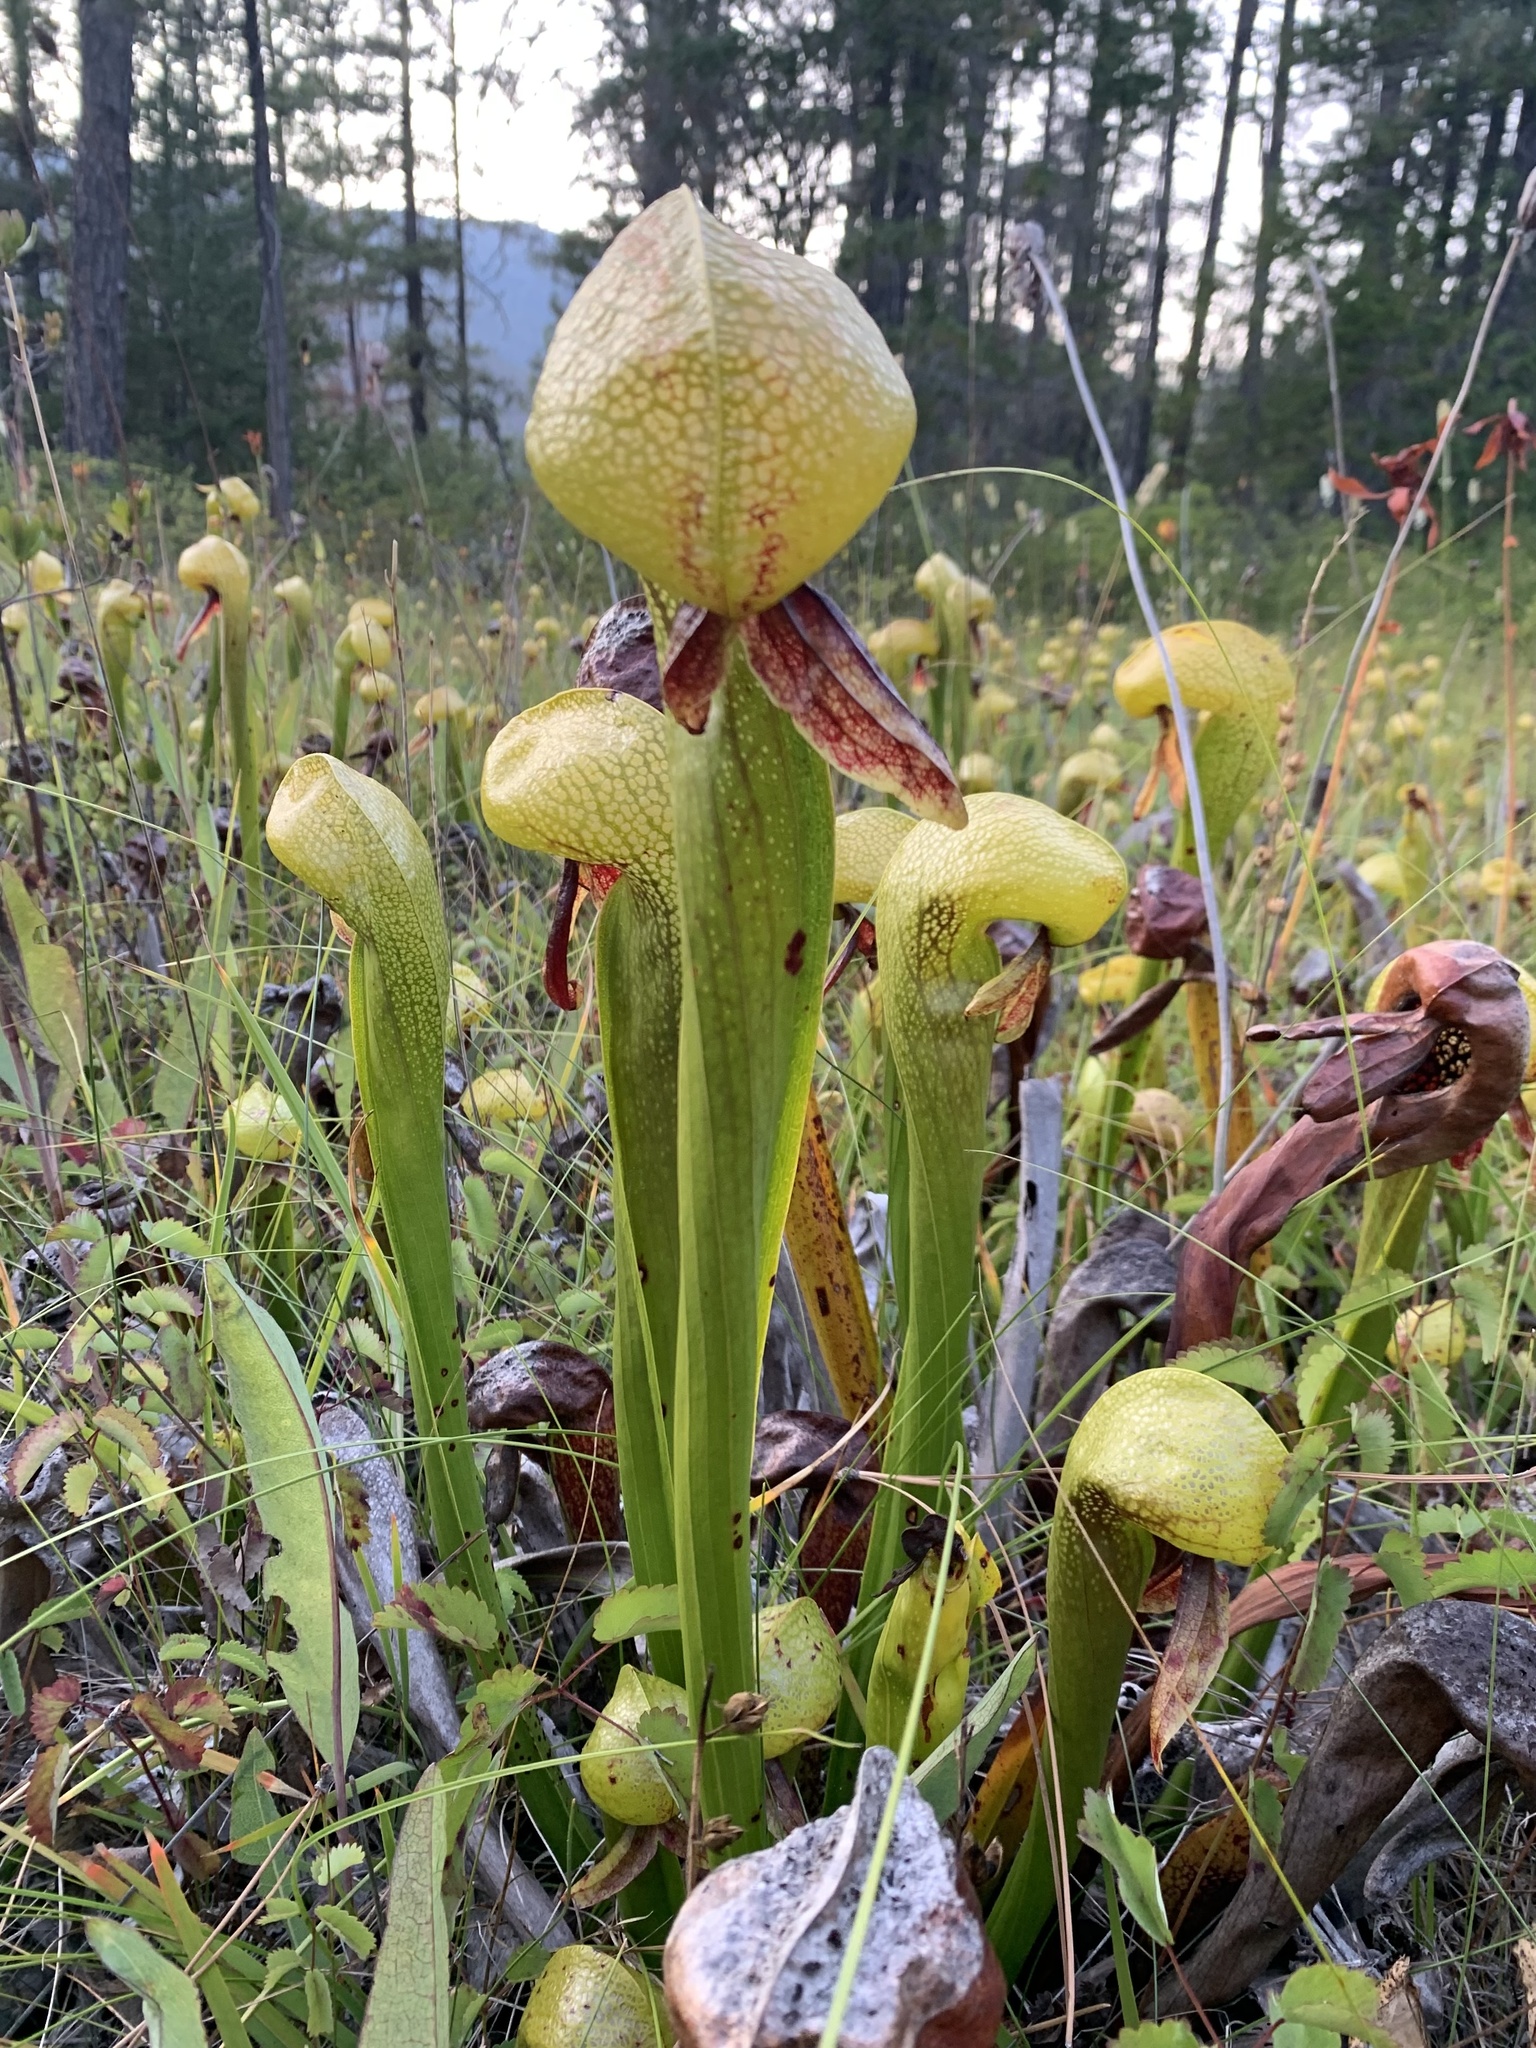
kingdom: Plantae
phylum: Tracheophyta
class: Magnoliopsida
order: Ericales
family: Sarraceniaceae
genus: Darlingtonia
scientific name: Darlingtonia californica
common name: California pitcher plant
